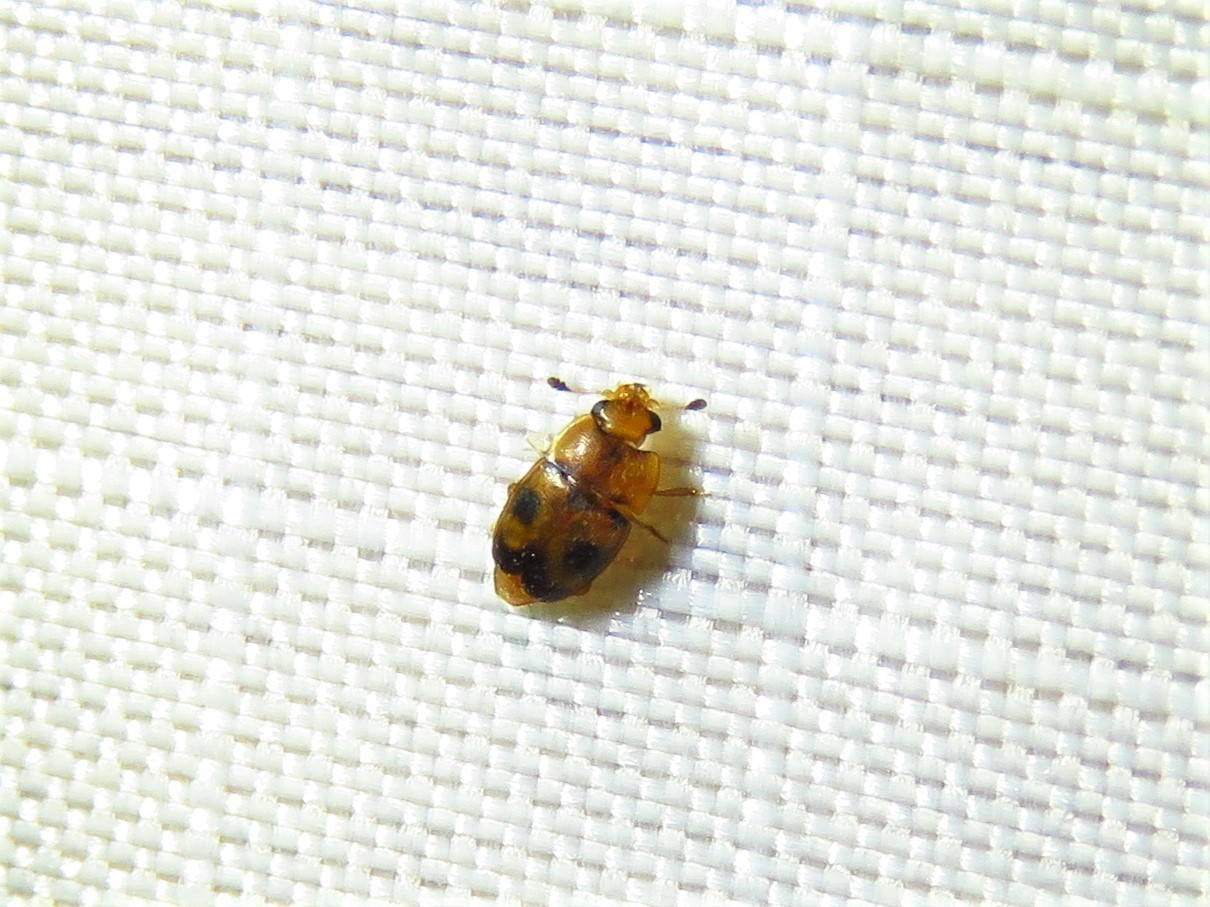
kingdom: Animalia
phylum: Arthropoda
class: Insecta
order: Coleoptera
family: Nitidulidae
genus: Epuraea
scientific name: Epuraea ocularis
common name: Sap beetle
